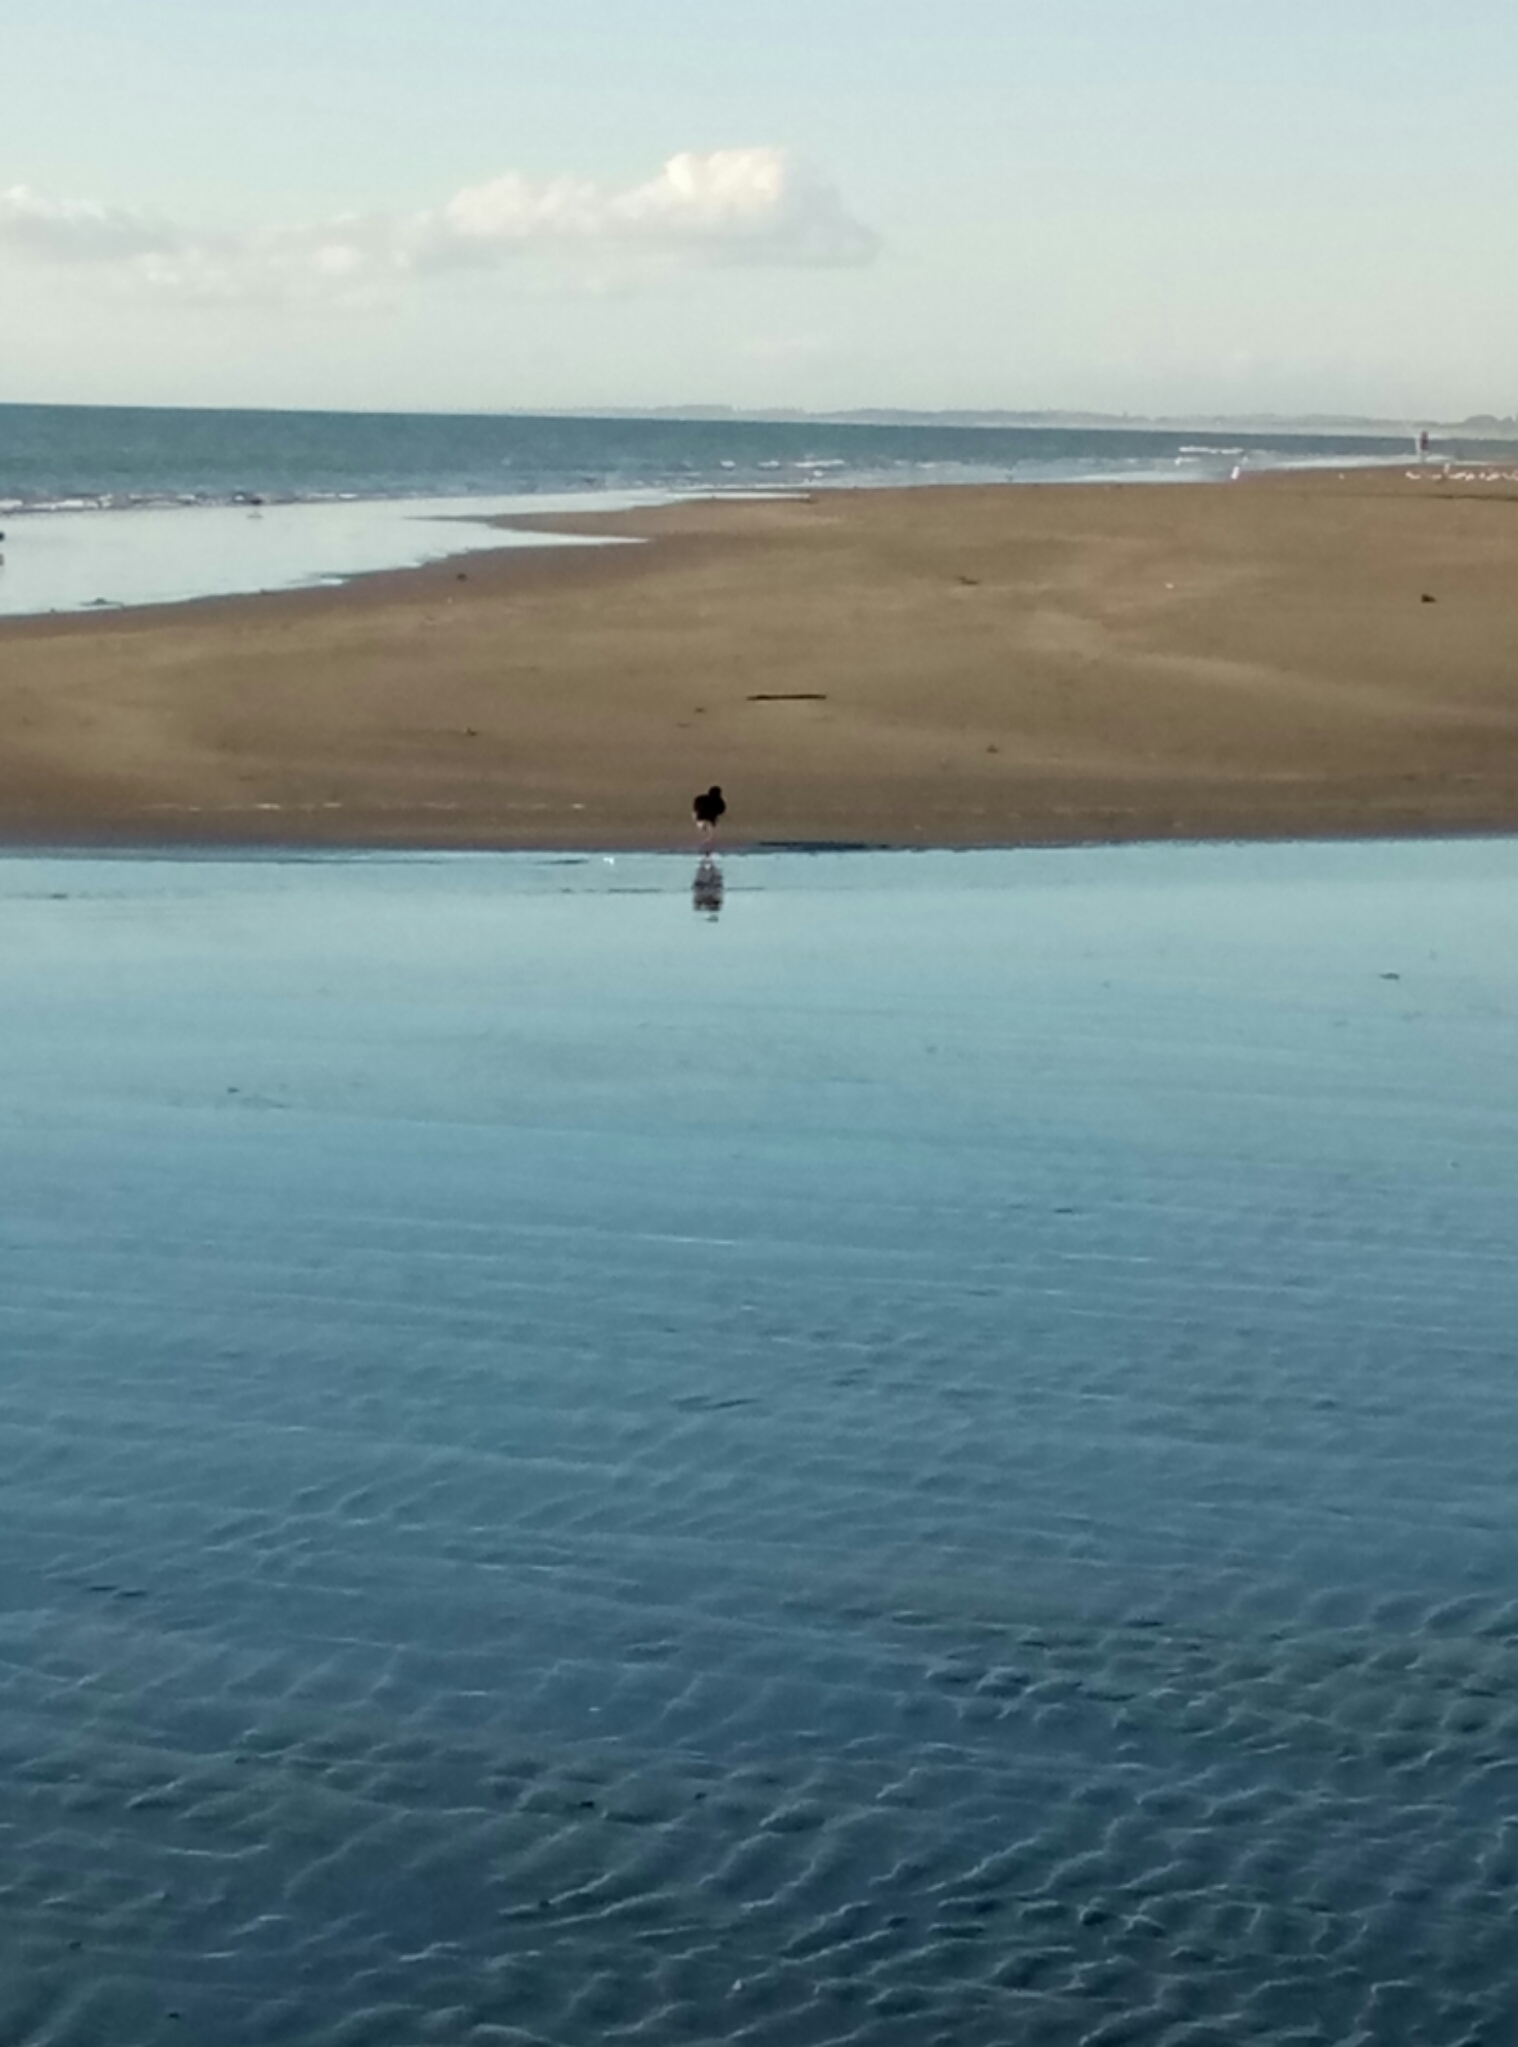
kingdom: Animalia
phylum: Chordata
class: Aves
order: Charadriiformes
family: Haematopodidae
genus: Haematopus
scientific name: Haematopus unicolor
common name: Variable oystercatcher
